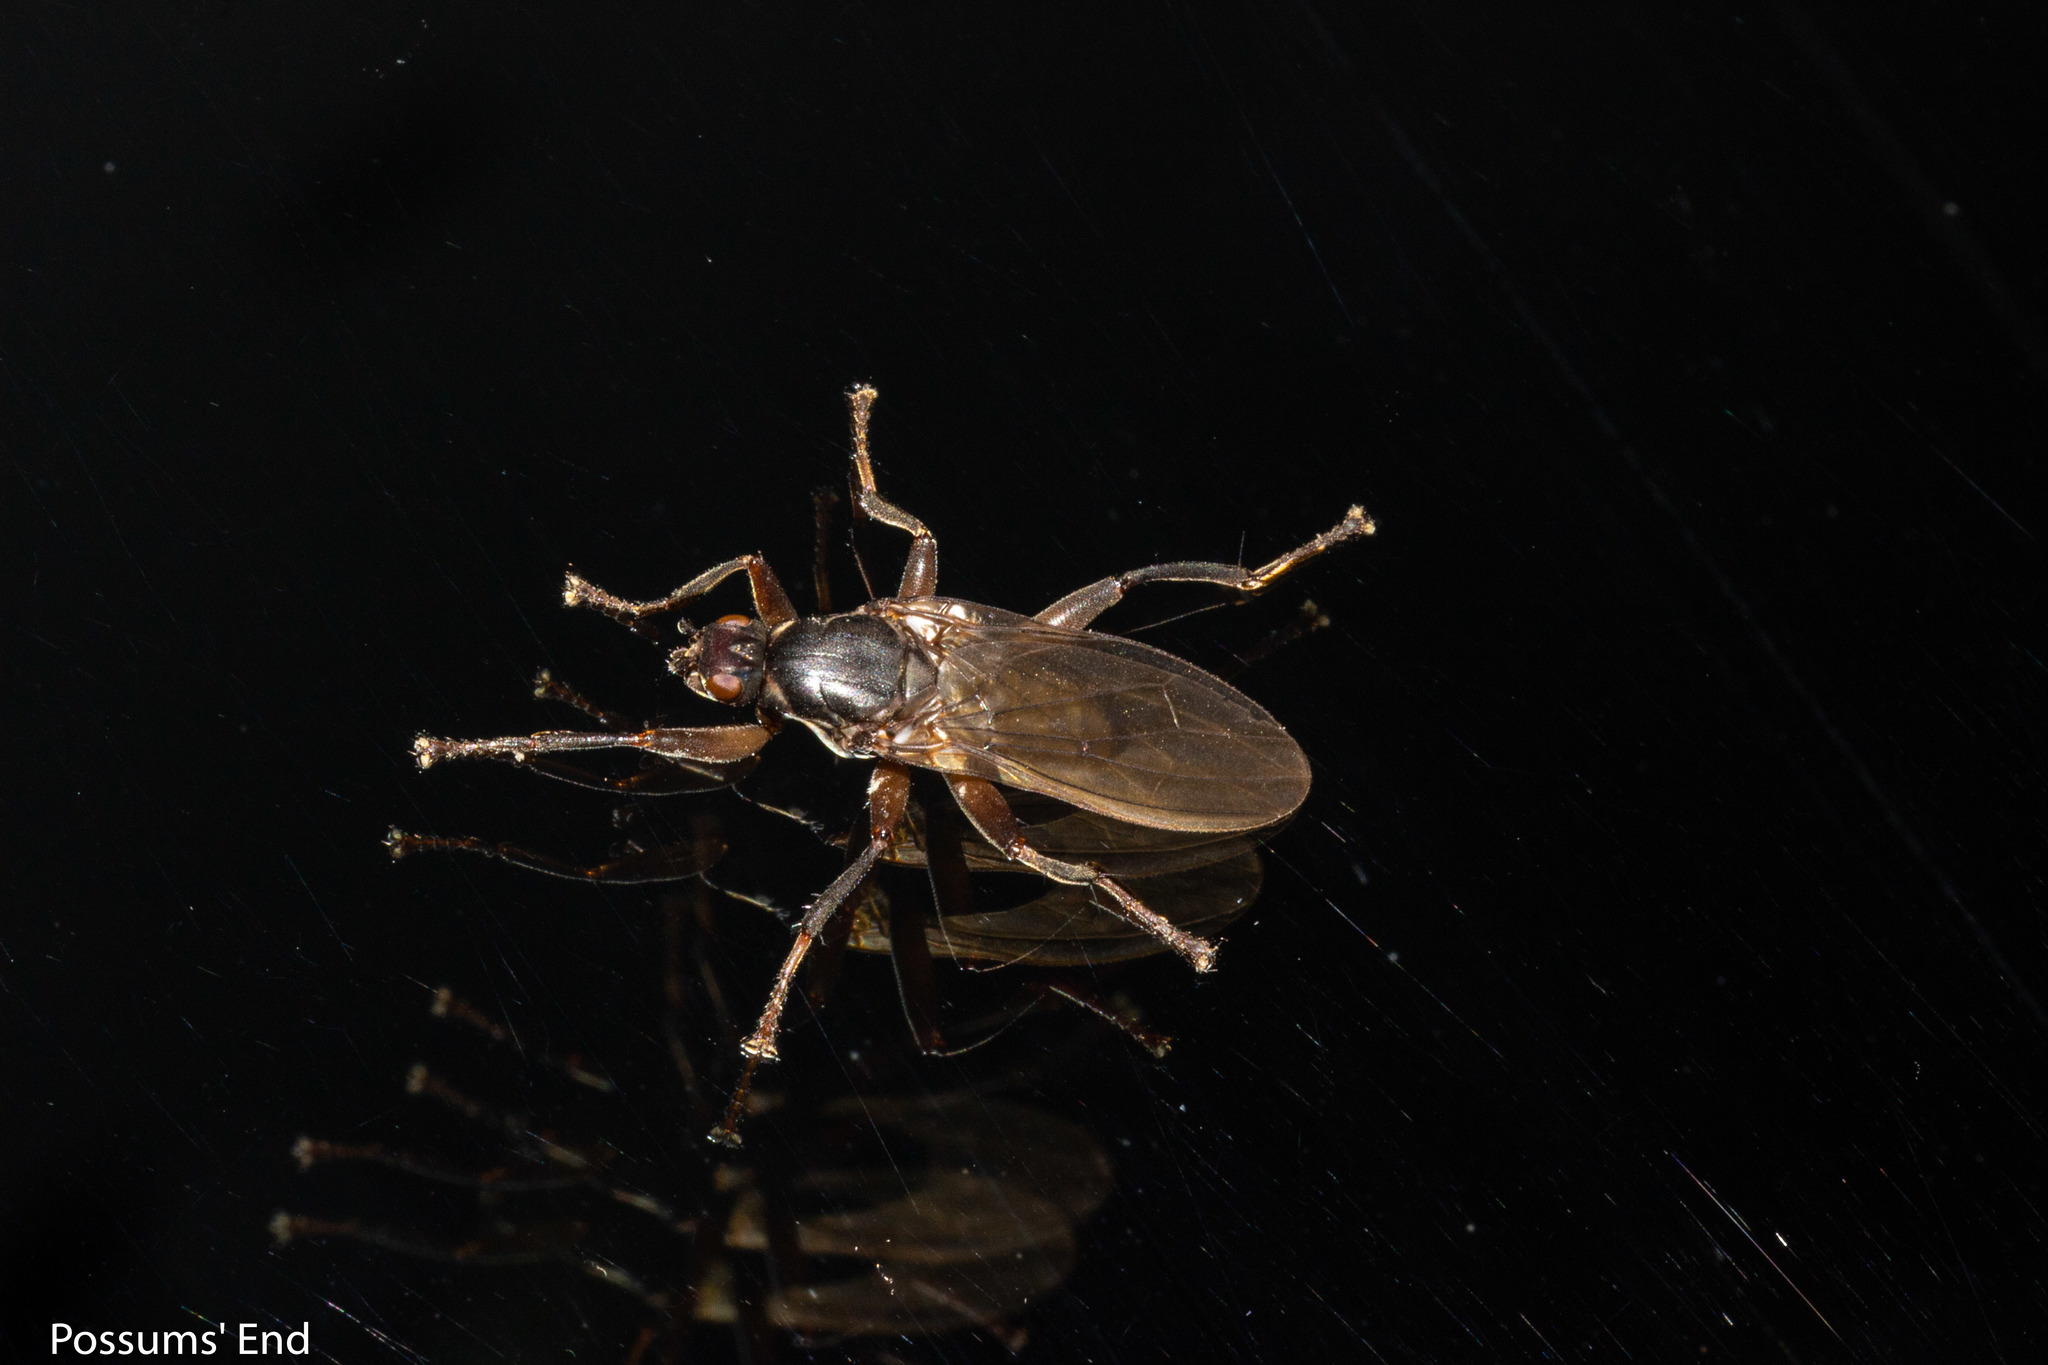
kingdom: Animalia
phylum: Arthropoda
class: Insecta
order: Diptera
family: Coelopidae
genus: Baeopterus
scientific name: Baeopterus philpotti
